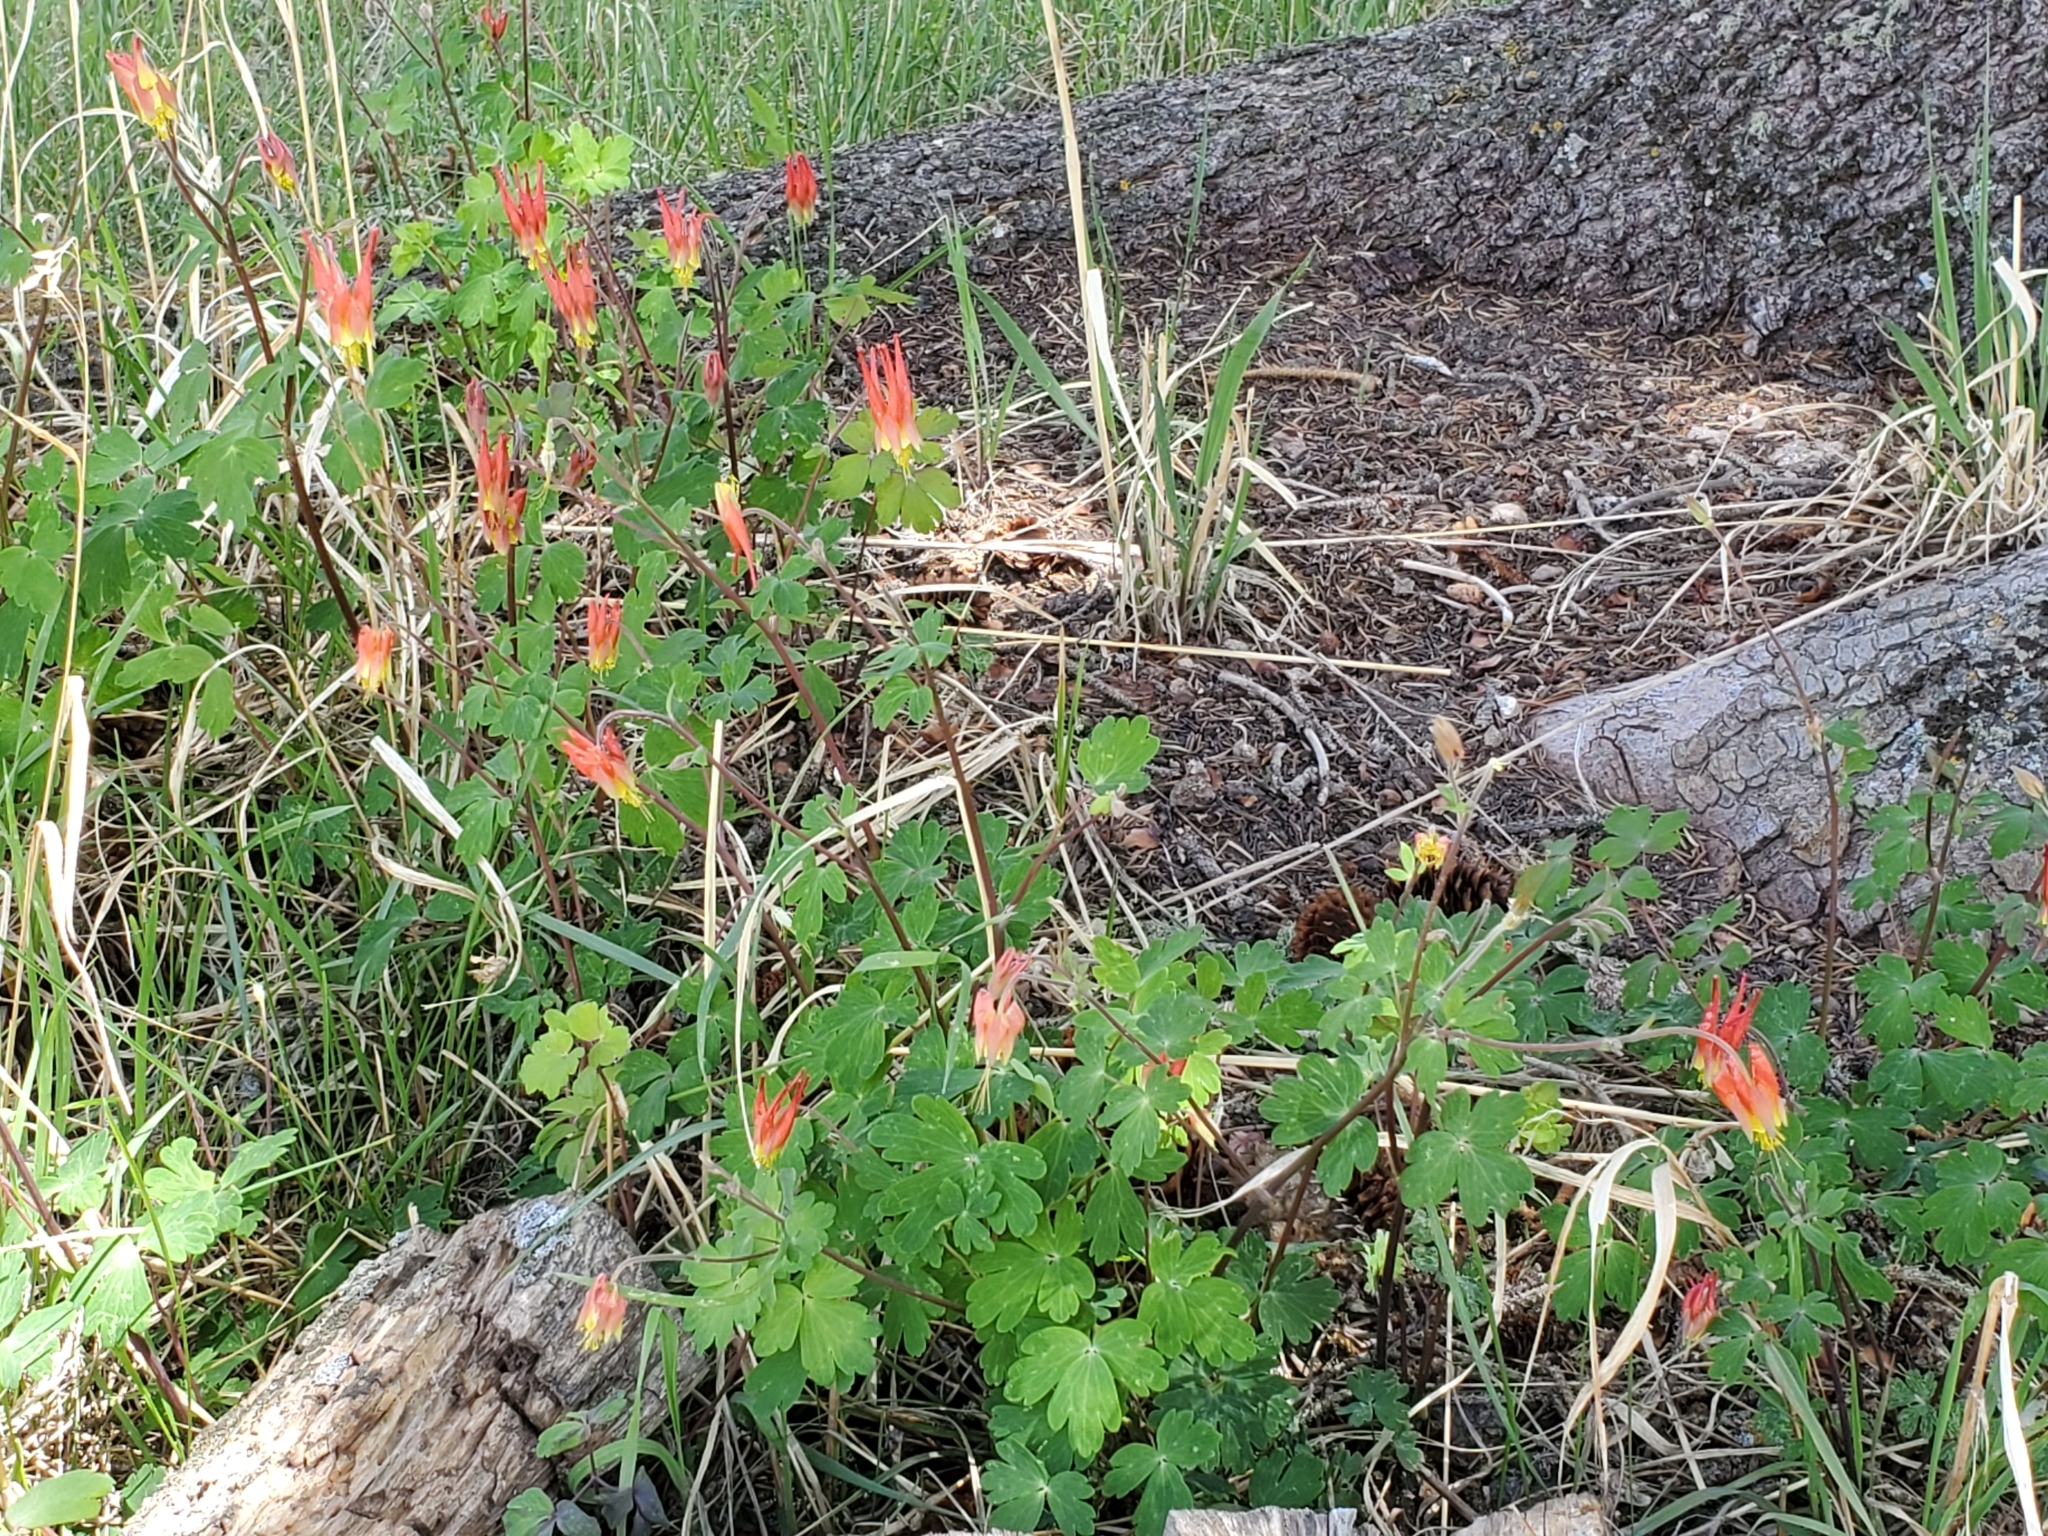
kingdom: Plantae
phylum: Tracheophyta
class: Magnoliopsida
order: Ranunculales
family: Ranunculaceae
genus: Aquilegia
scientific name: Aquilegia elegantula
